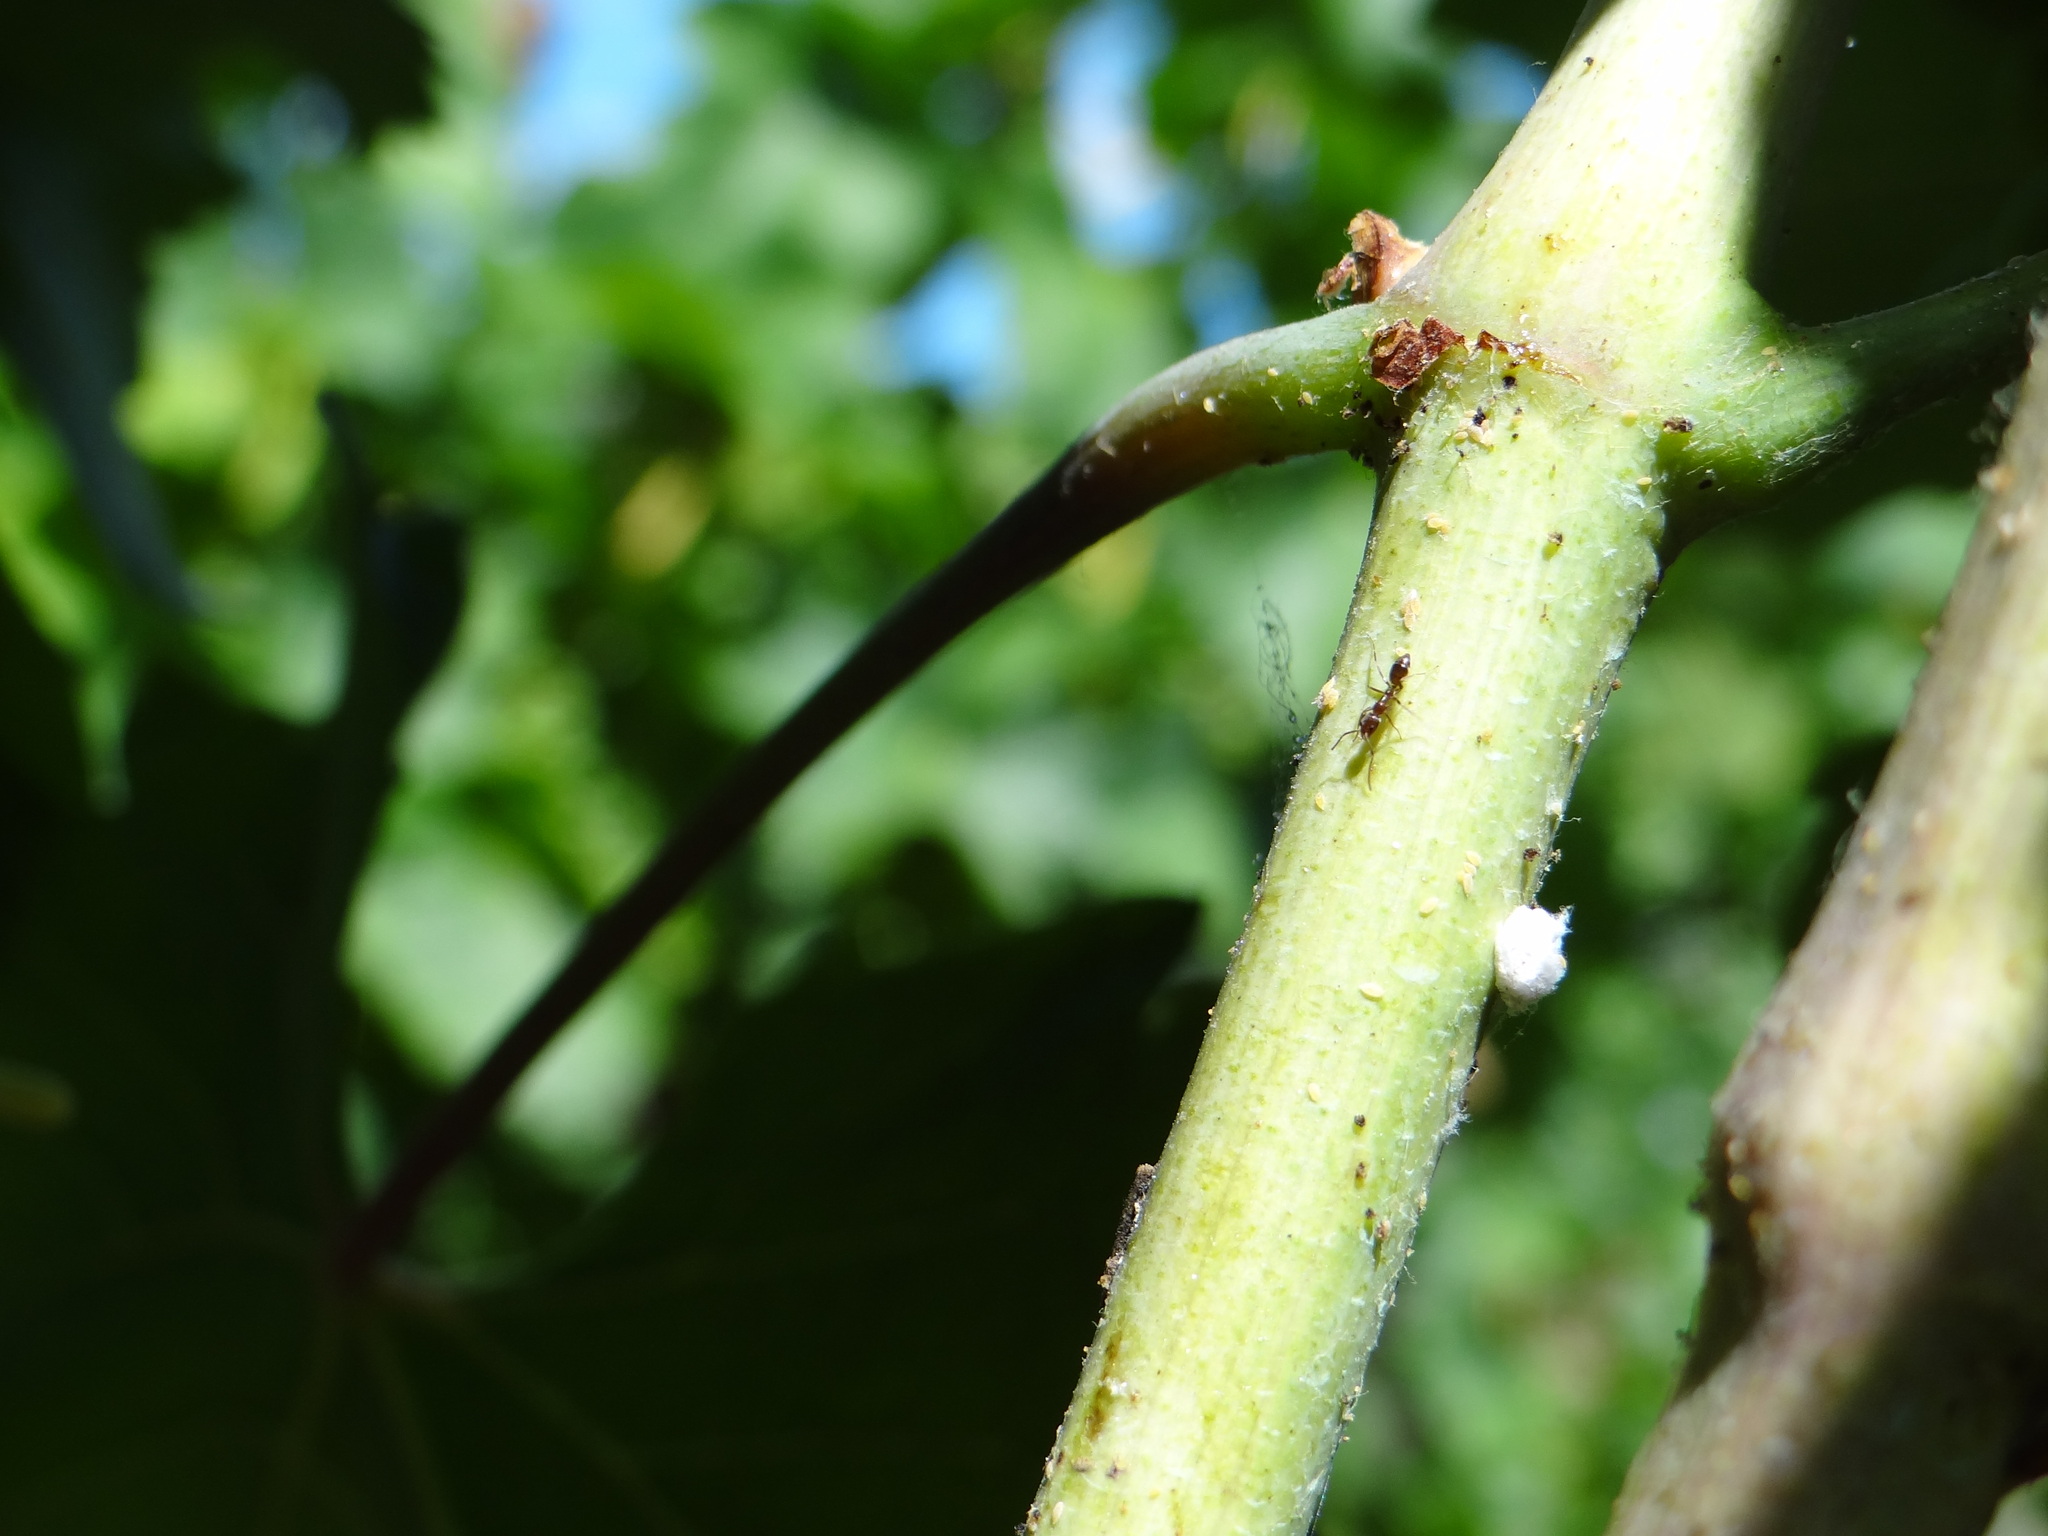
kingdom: Animalia
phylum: Arthropoda
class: Insecta
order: Hymenoptera
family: Formicidae
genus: Linepithema
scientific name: Linepithema humile
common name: Argentine ant
